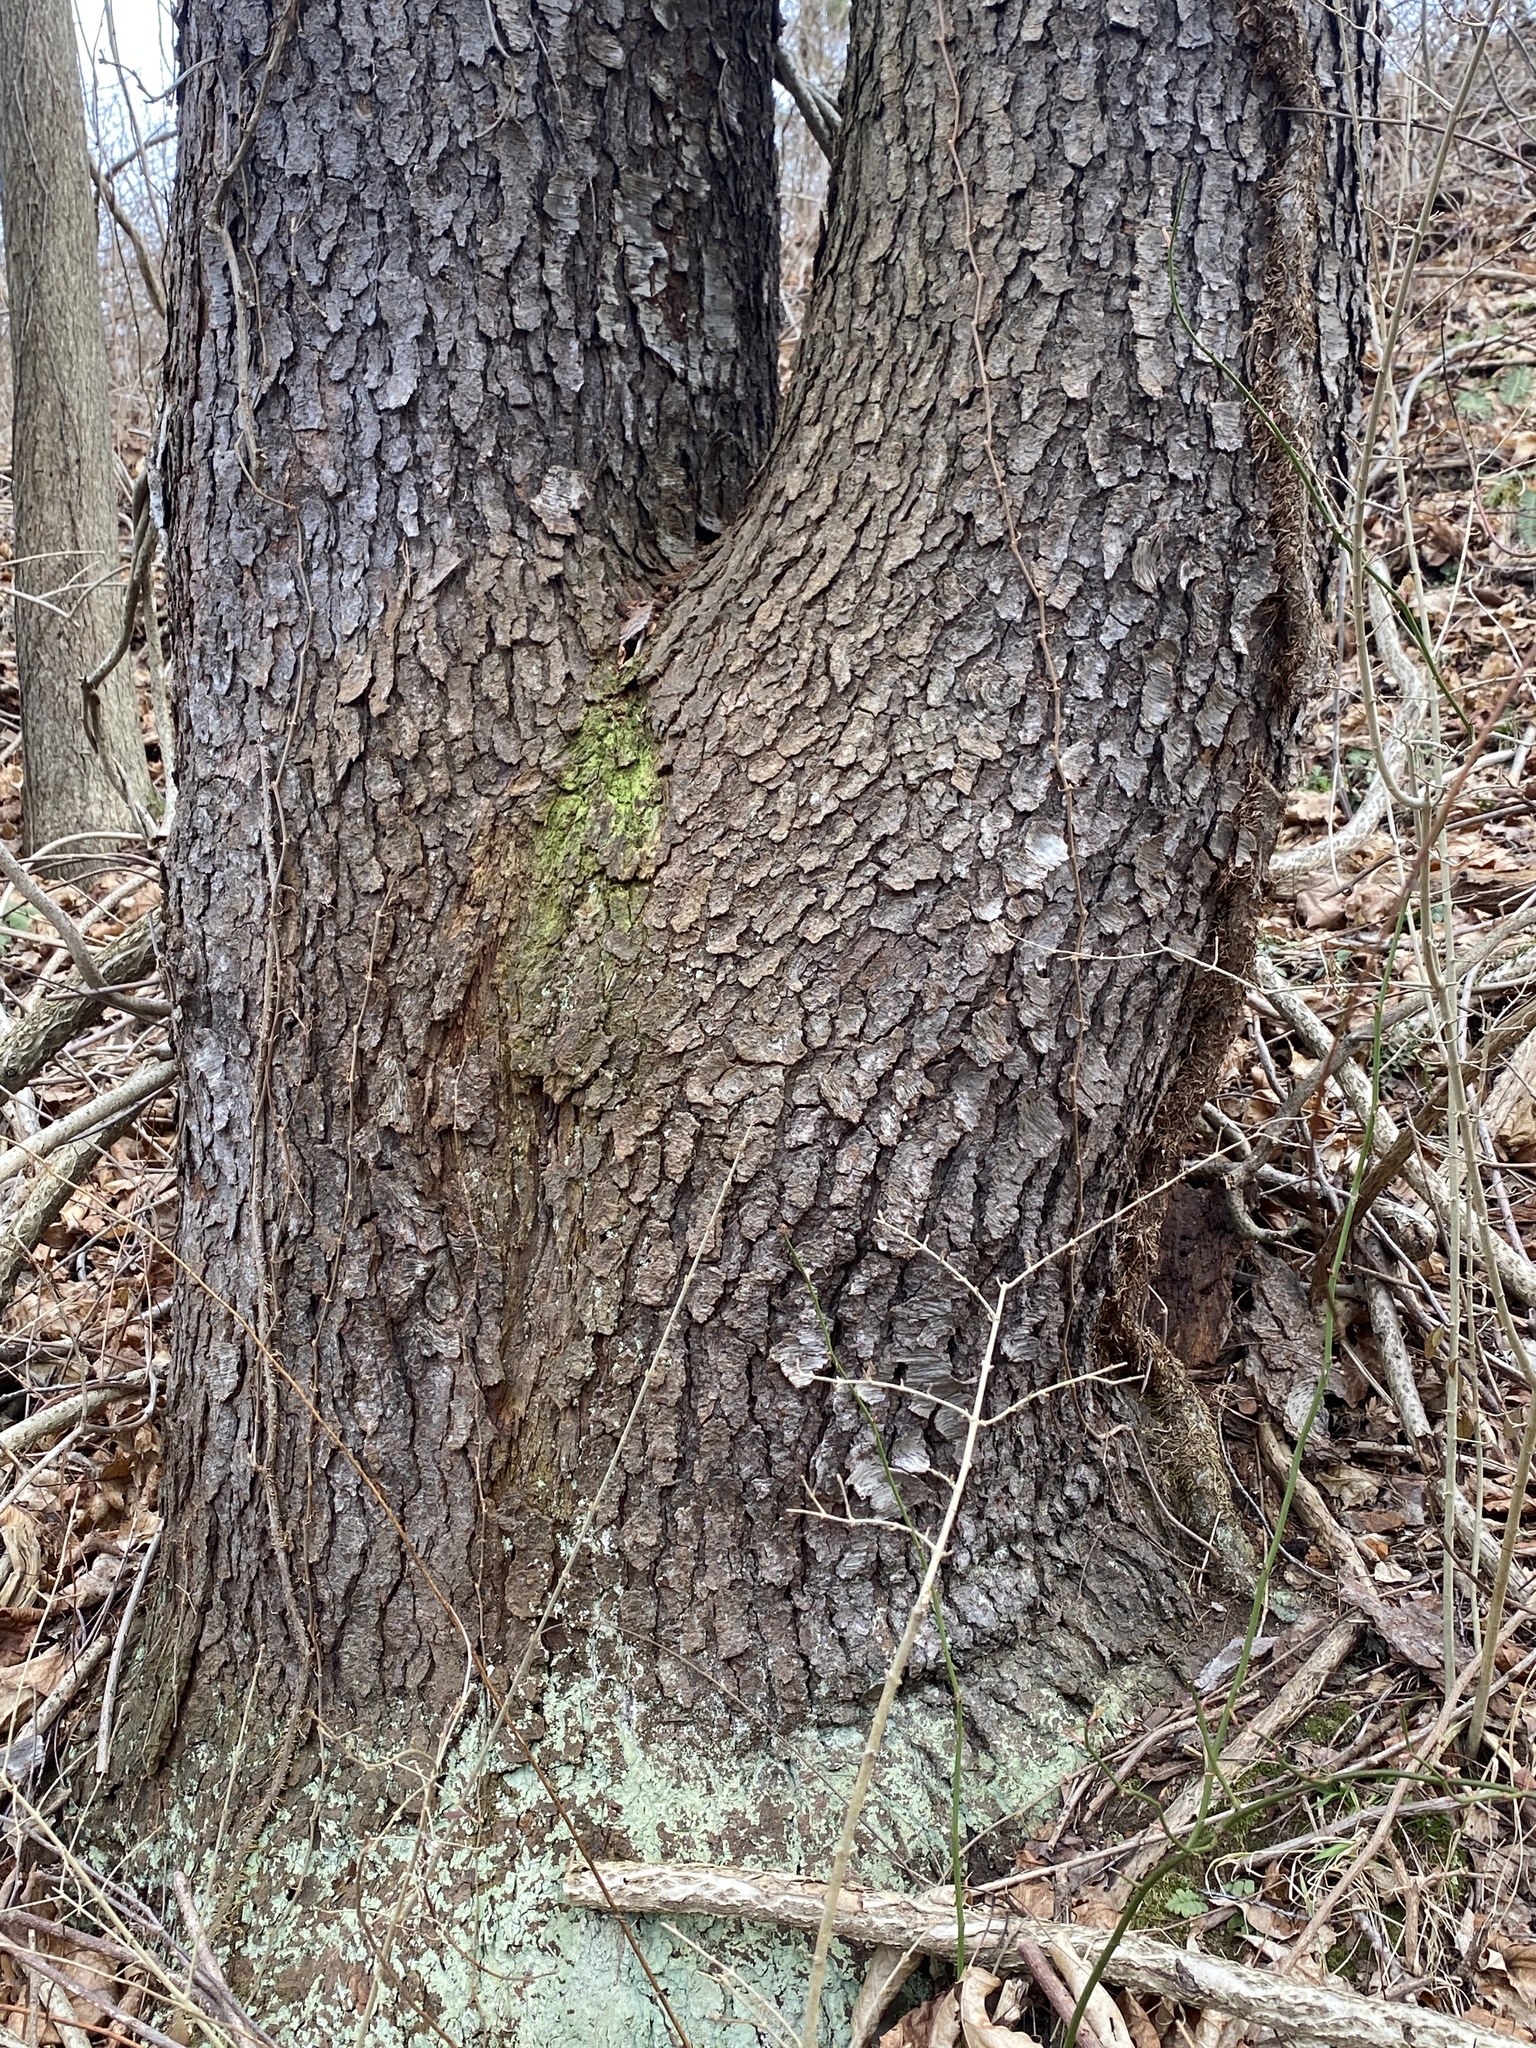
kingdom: Plantae
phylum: Tracheophyta
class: Magnoliopsida
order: Rosales
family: Rosaceae
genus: Prunus
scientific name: Prunus serotina
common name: Black cherry
